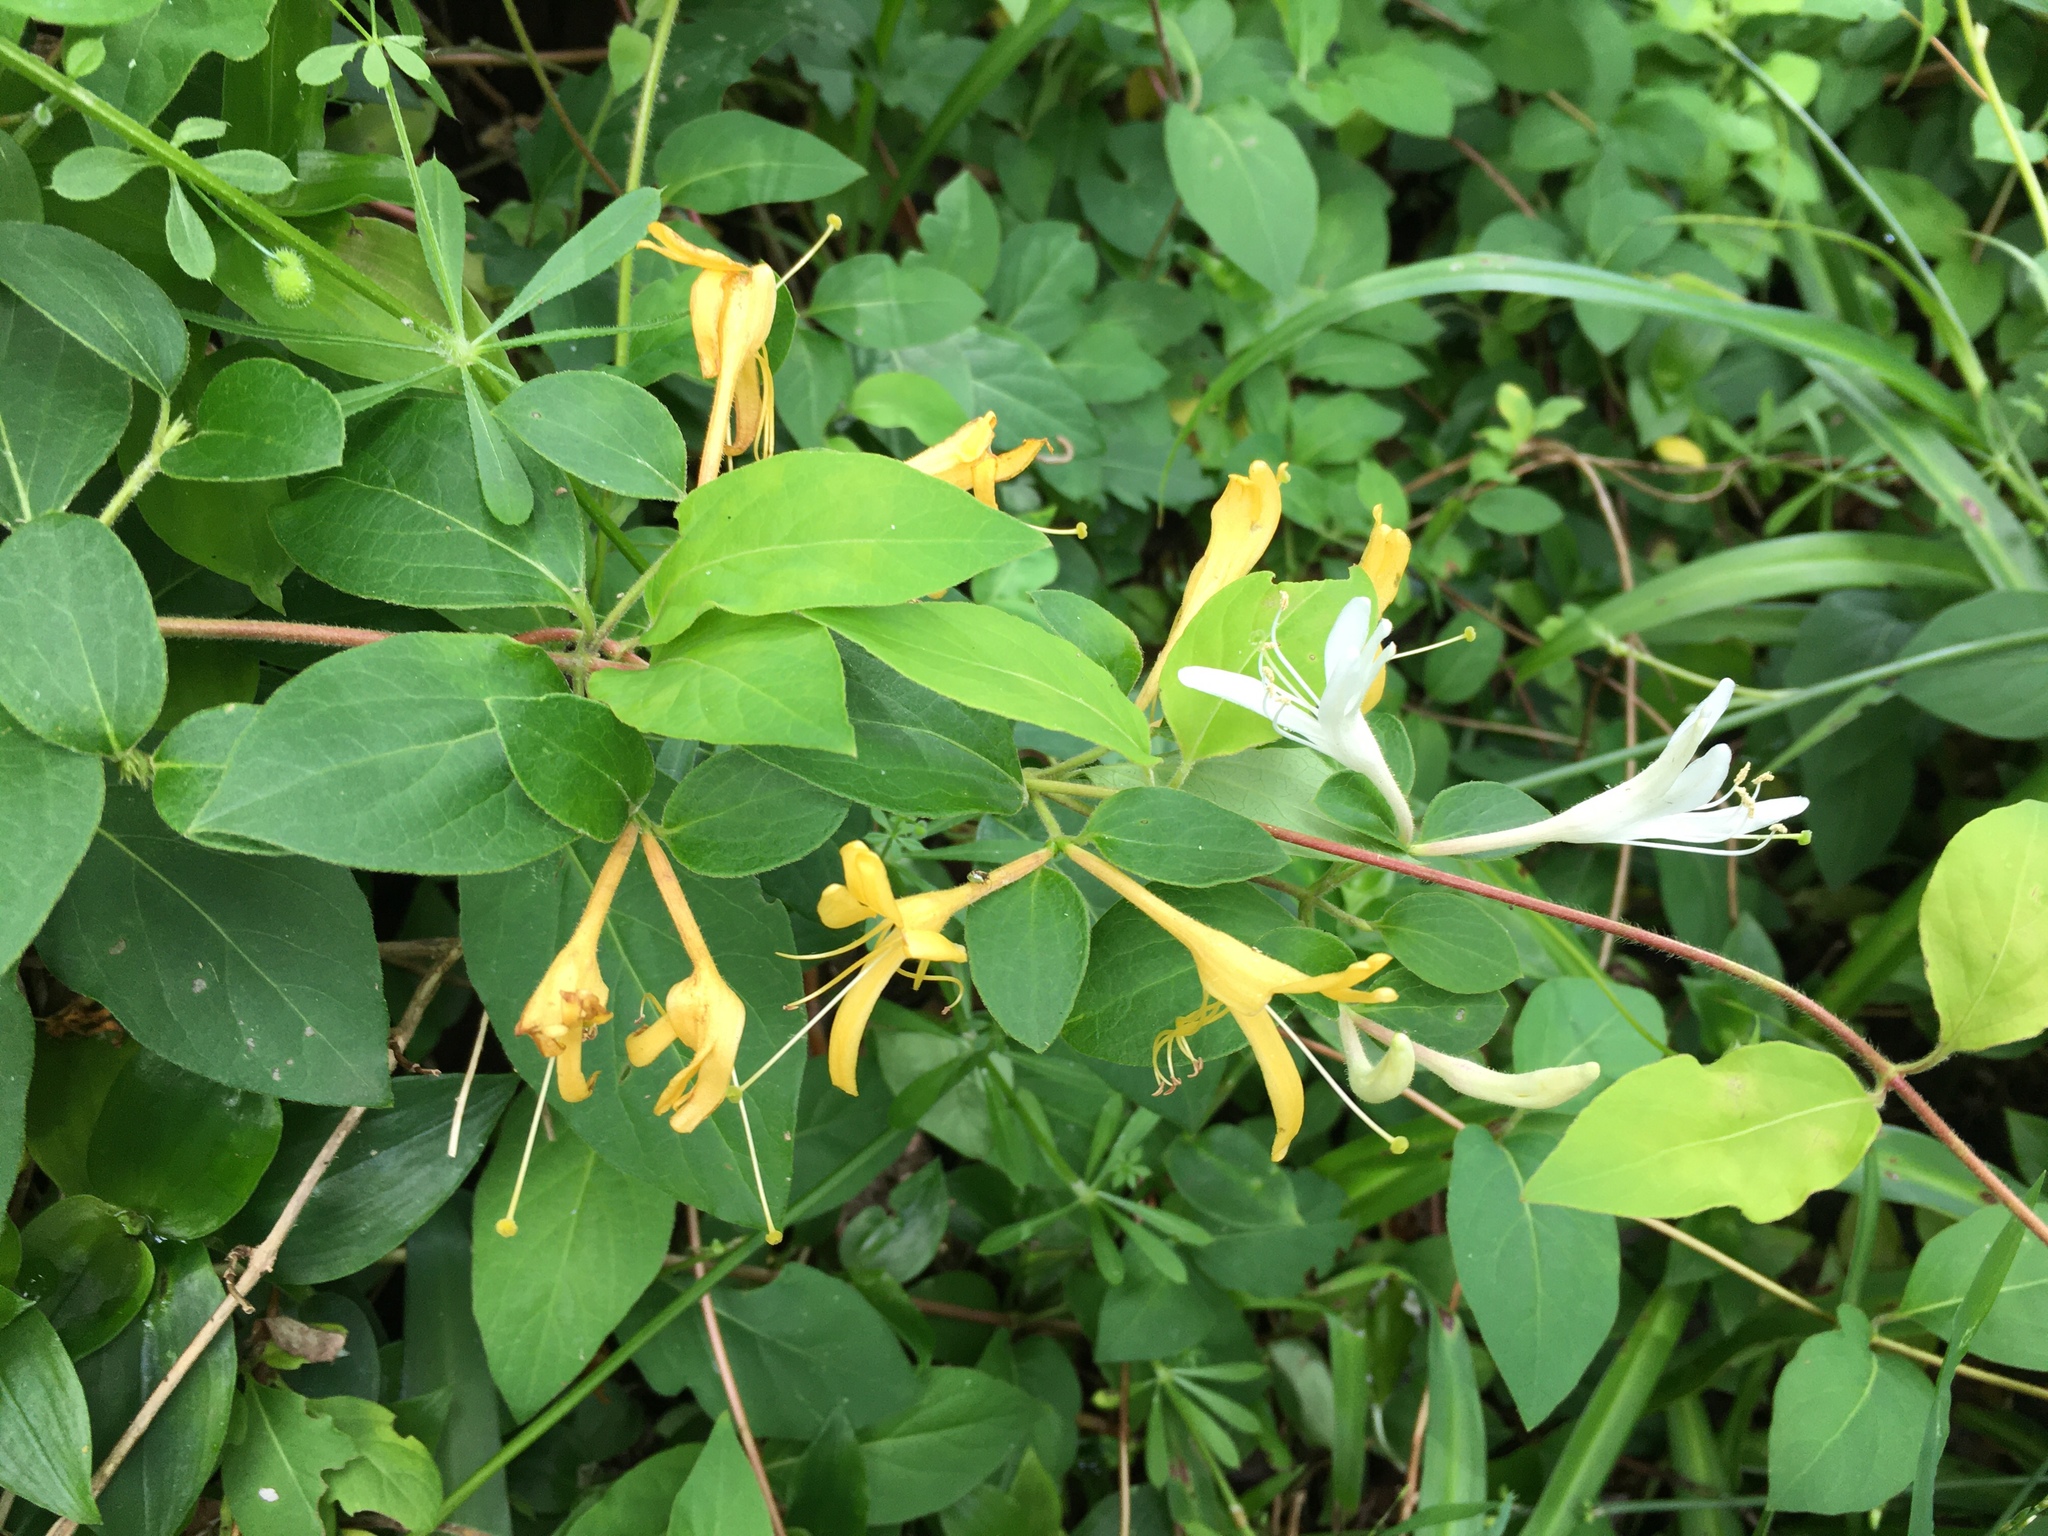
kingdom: Plantae
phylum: Tracheophyta
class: Magnoliopsida
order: Dipsacales
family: Caprifoliaceae
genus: Lonicera
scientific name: Lonicera japonica
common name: Japanese honeysuckle
